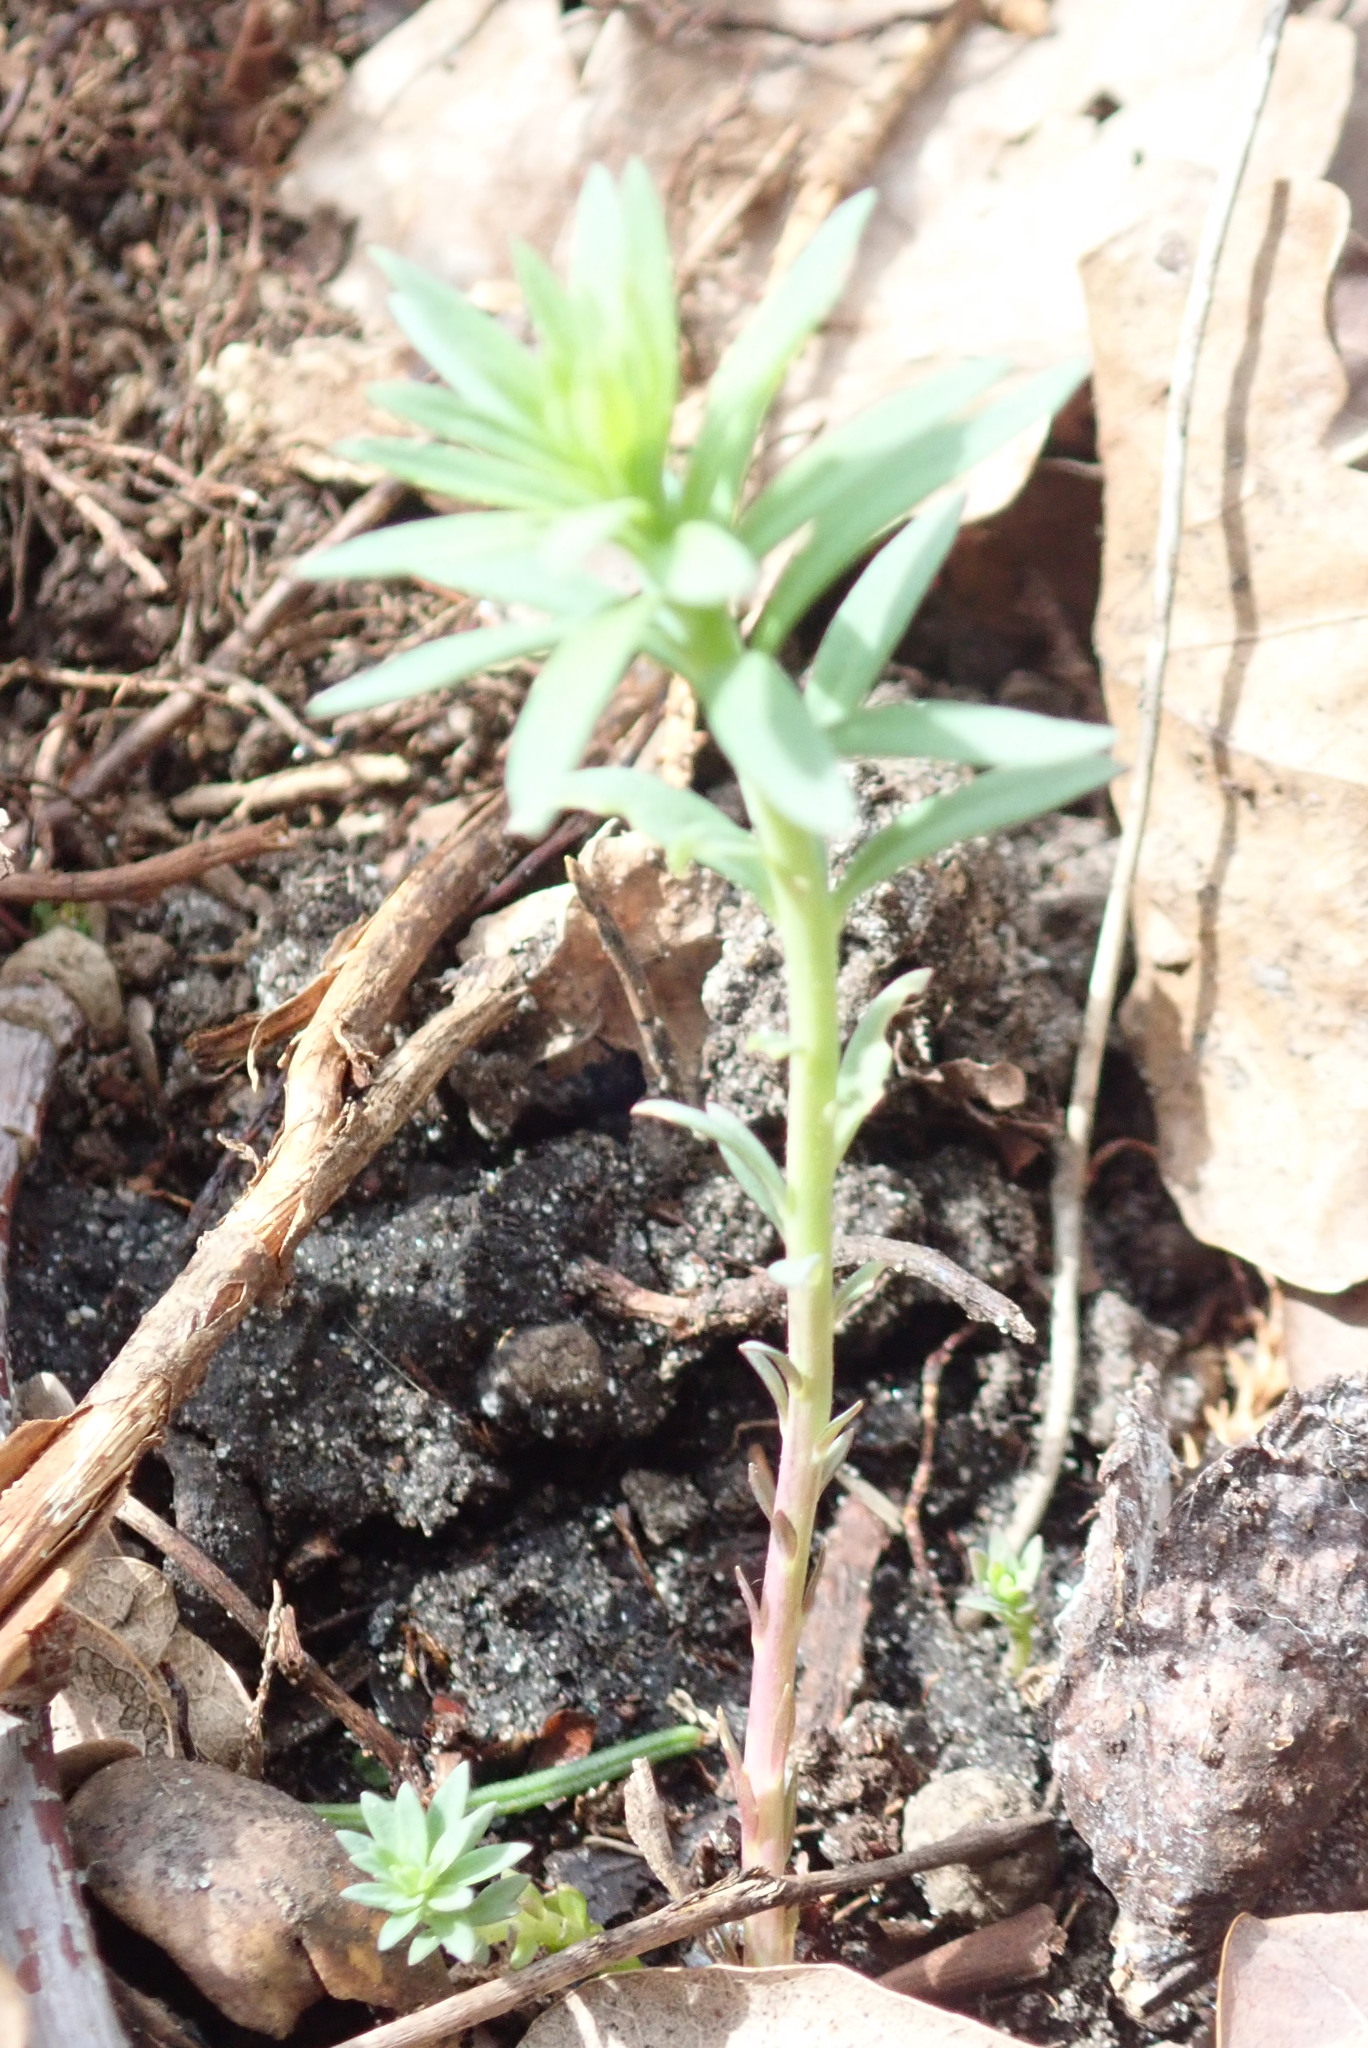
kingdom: Plantae
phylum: Tracheophyta
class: Magnoliopsida
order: Lamiales
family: Plantaginaceae
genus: Linaria
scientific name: Linaria vulgaris
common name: Butter and eggs
